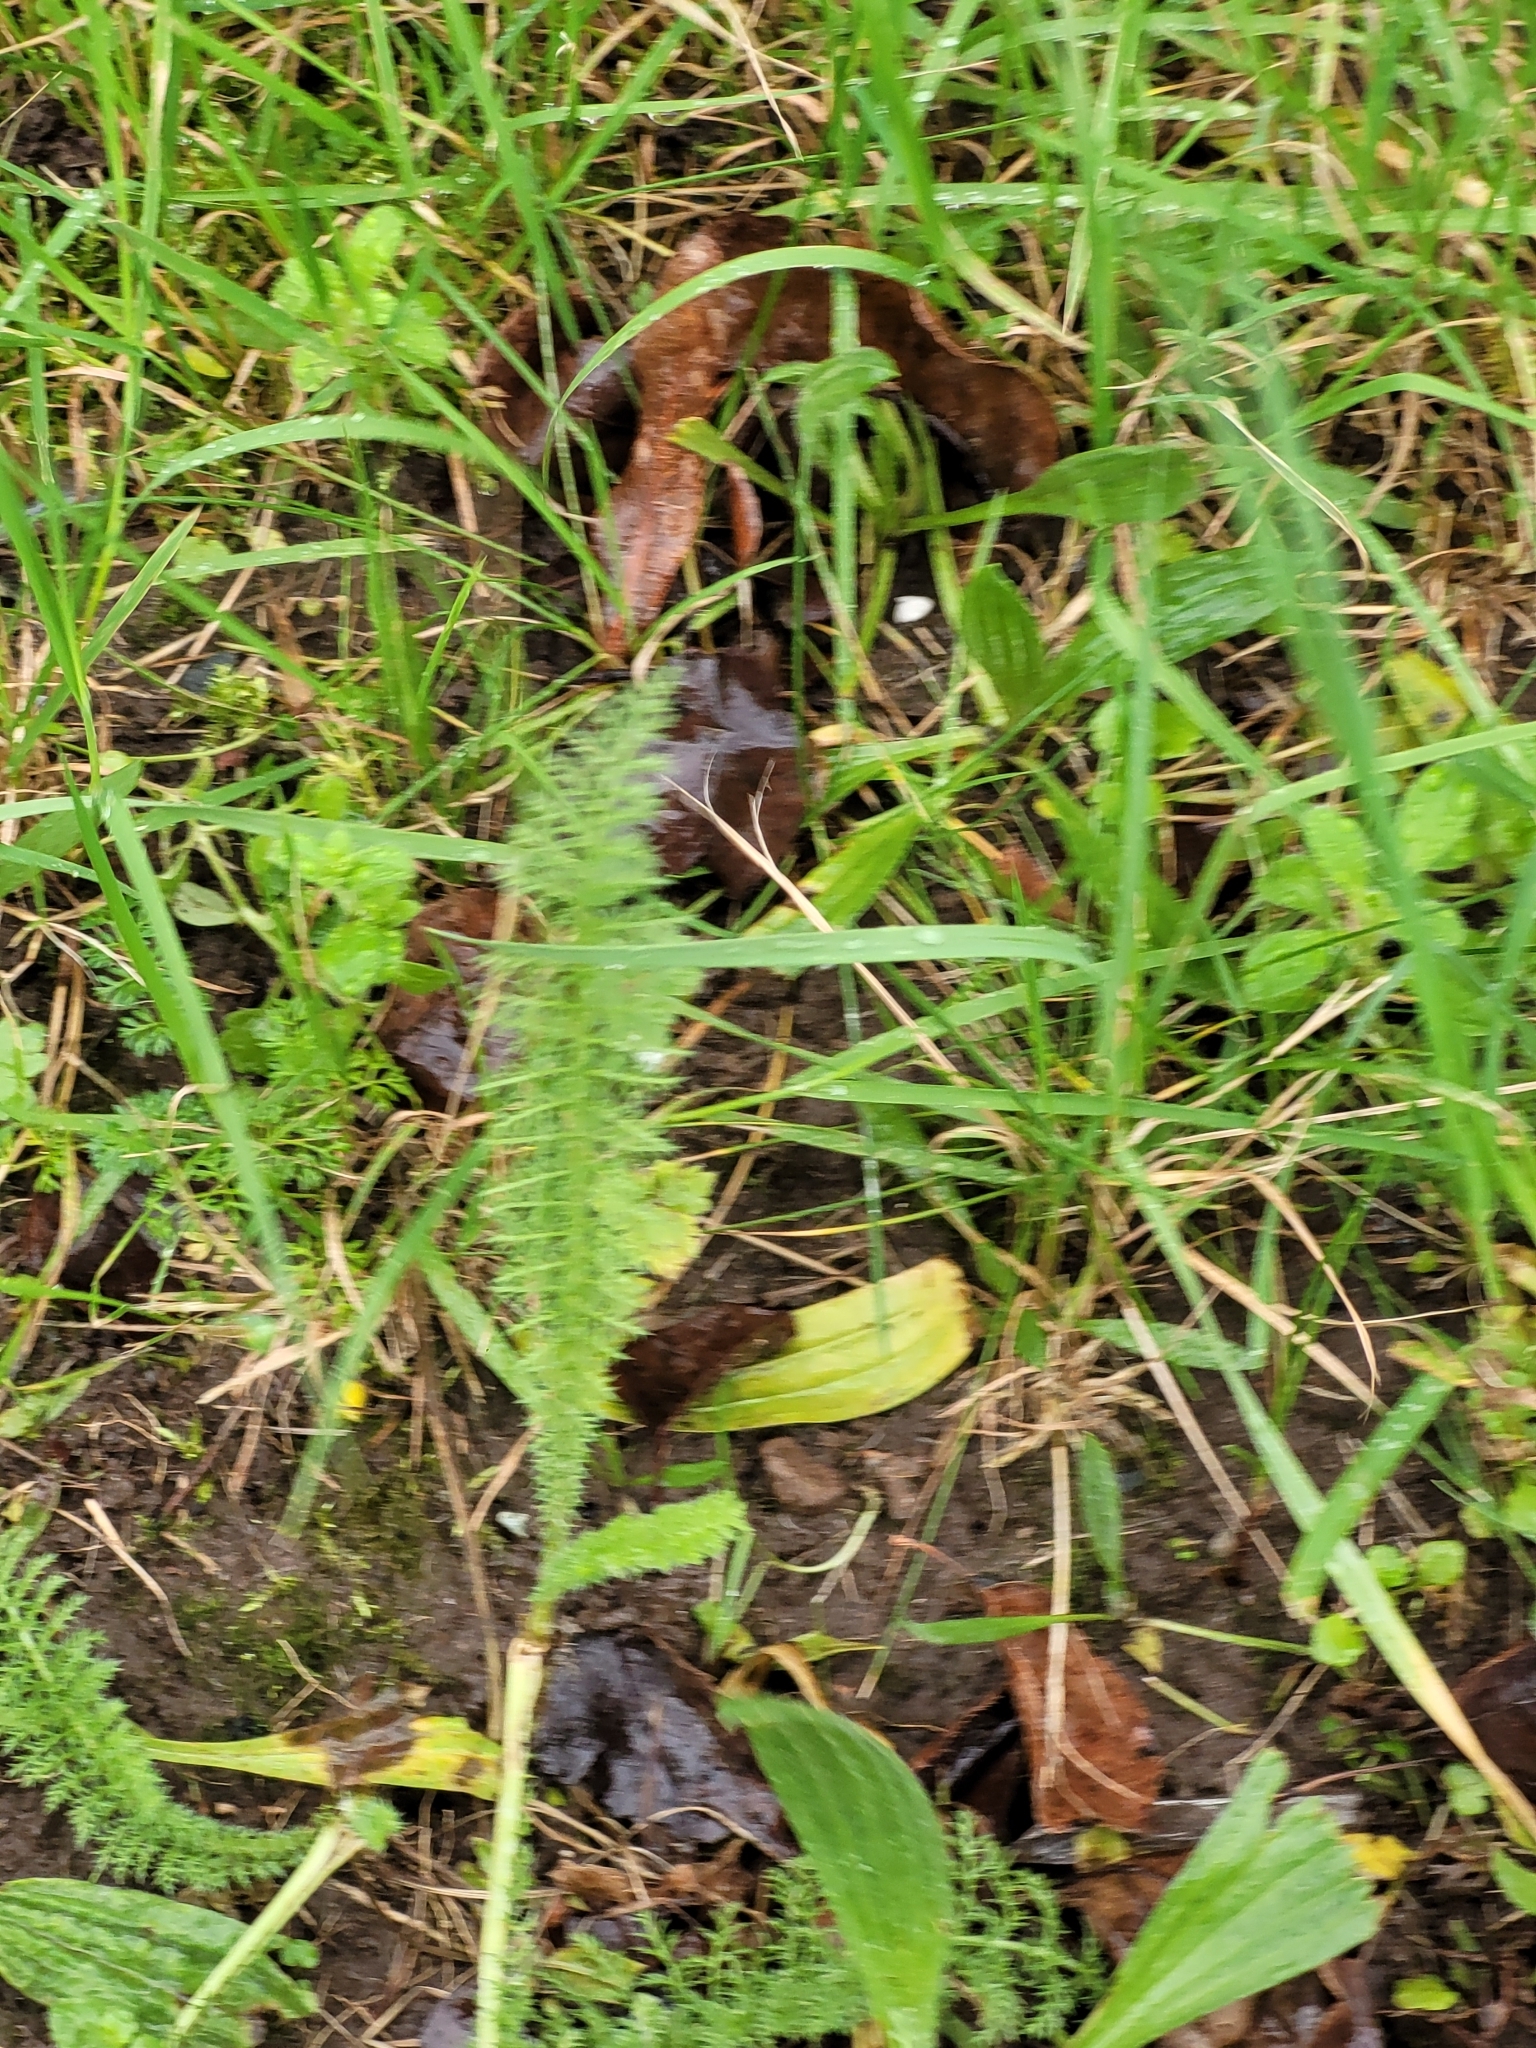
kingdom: Plantae
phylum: Tracheophyta
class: Magnoliopsida
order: Asterales
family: Asteraceae
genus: Achillea
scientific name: Achillea millefolium
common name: Yarrow
